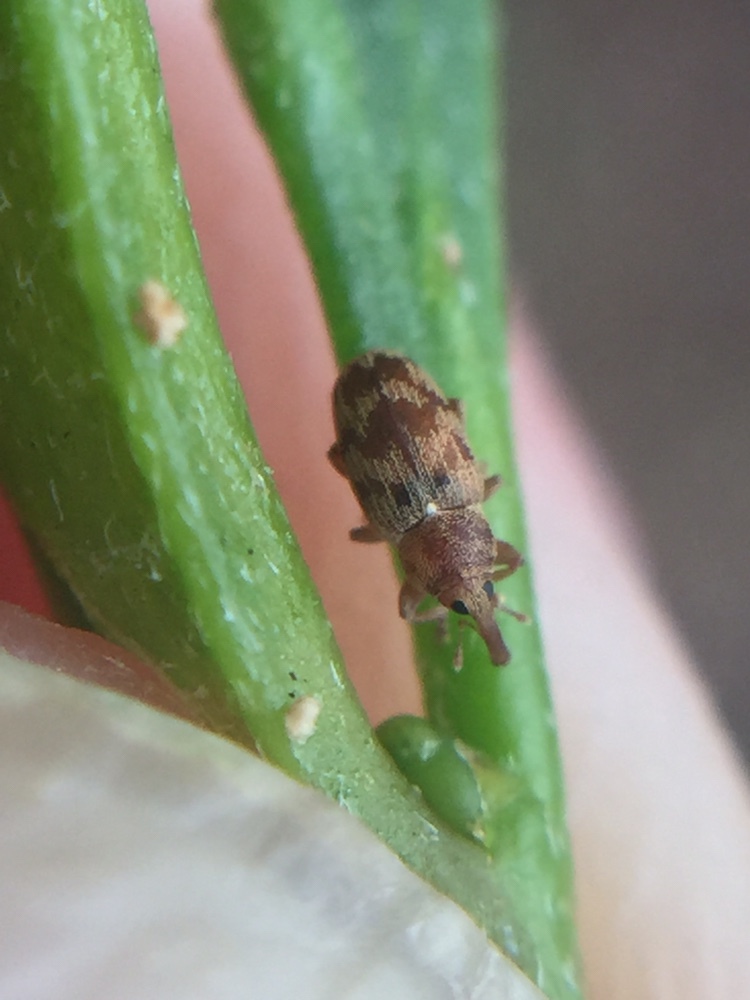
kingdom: Animalia
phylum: Arthropoda
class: Insecta
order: Coleoptera
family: Curculionidae
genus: Epamoebus
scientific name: Epamoebus ziczac
